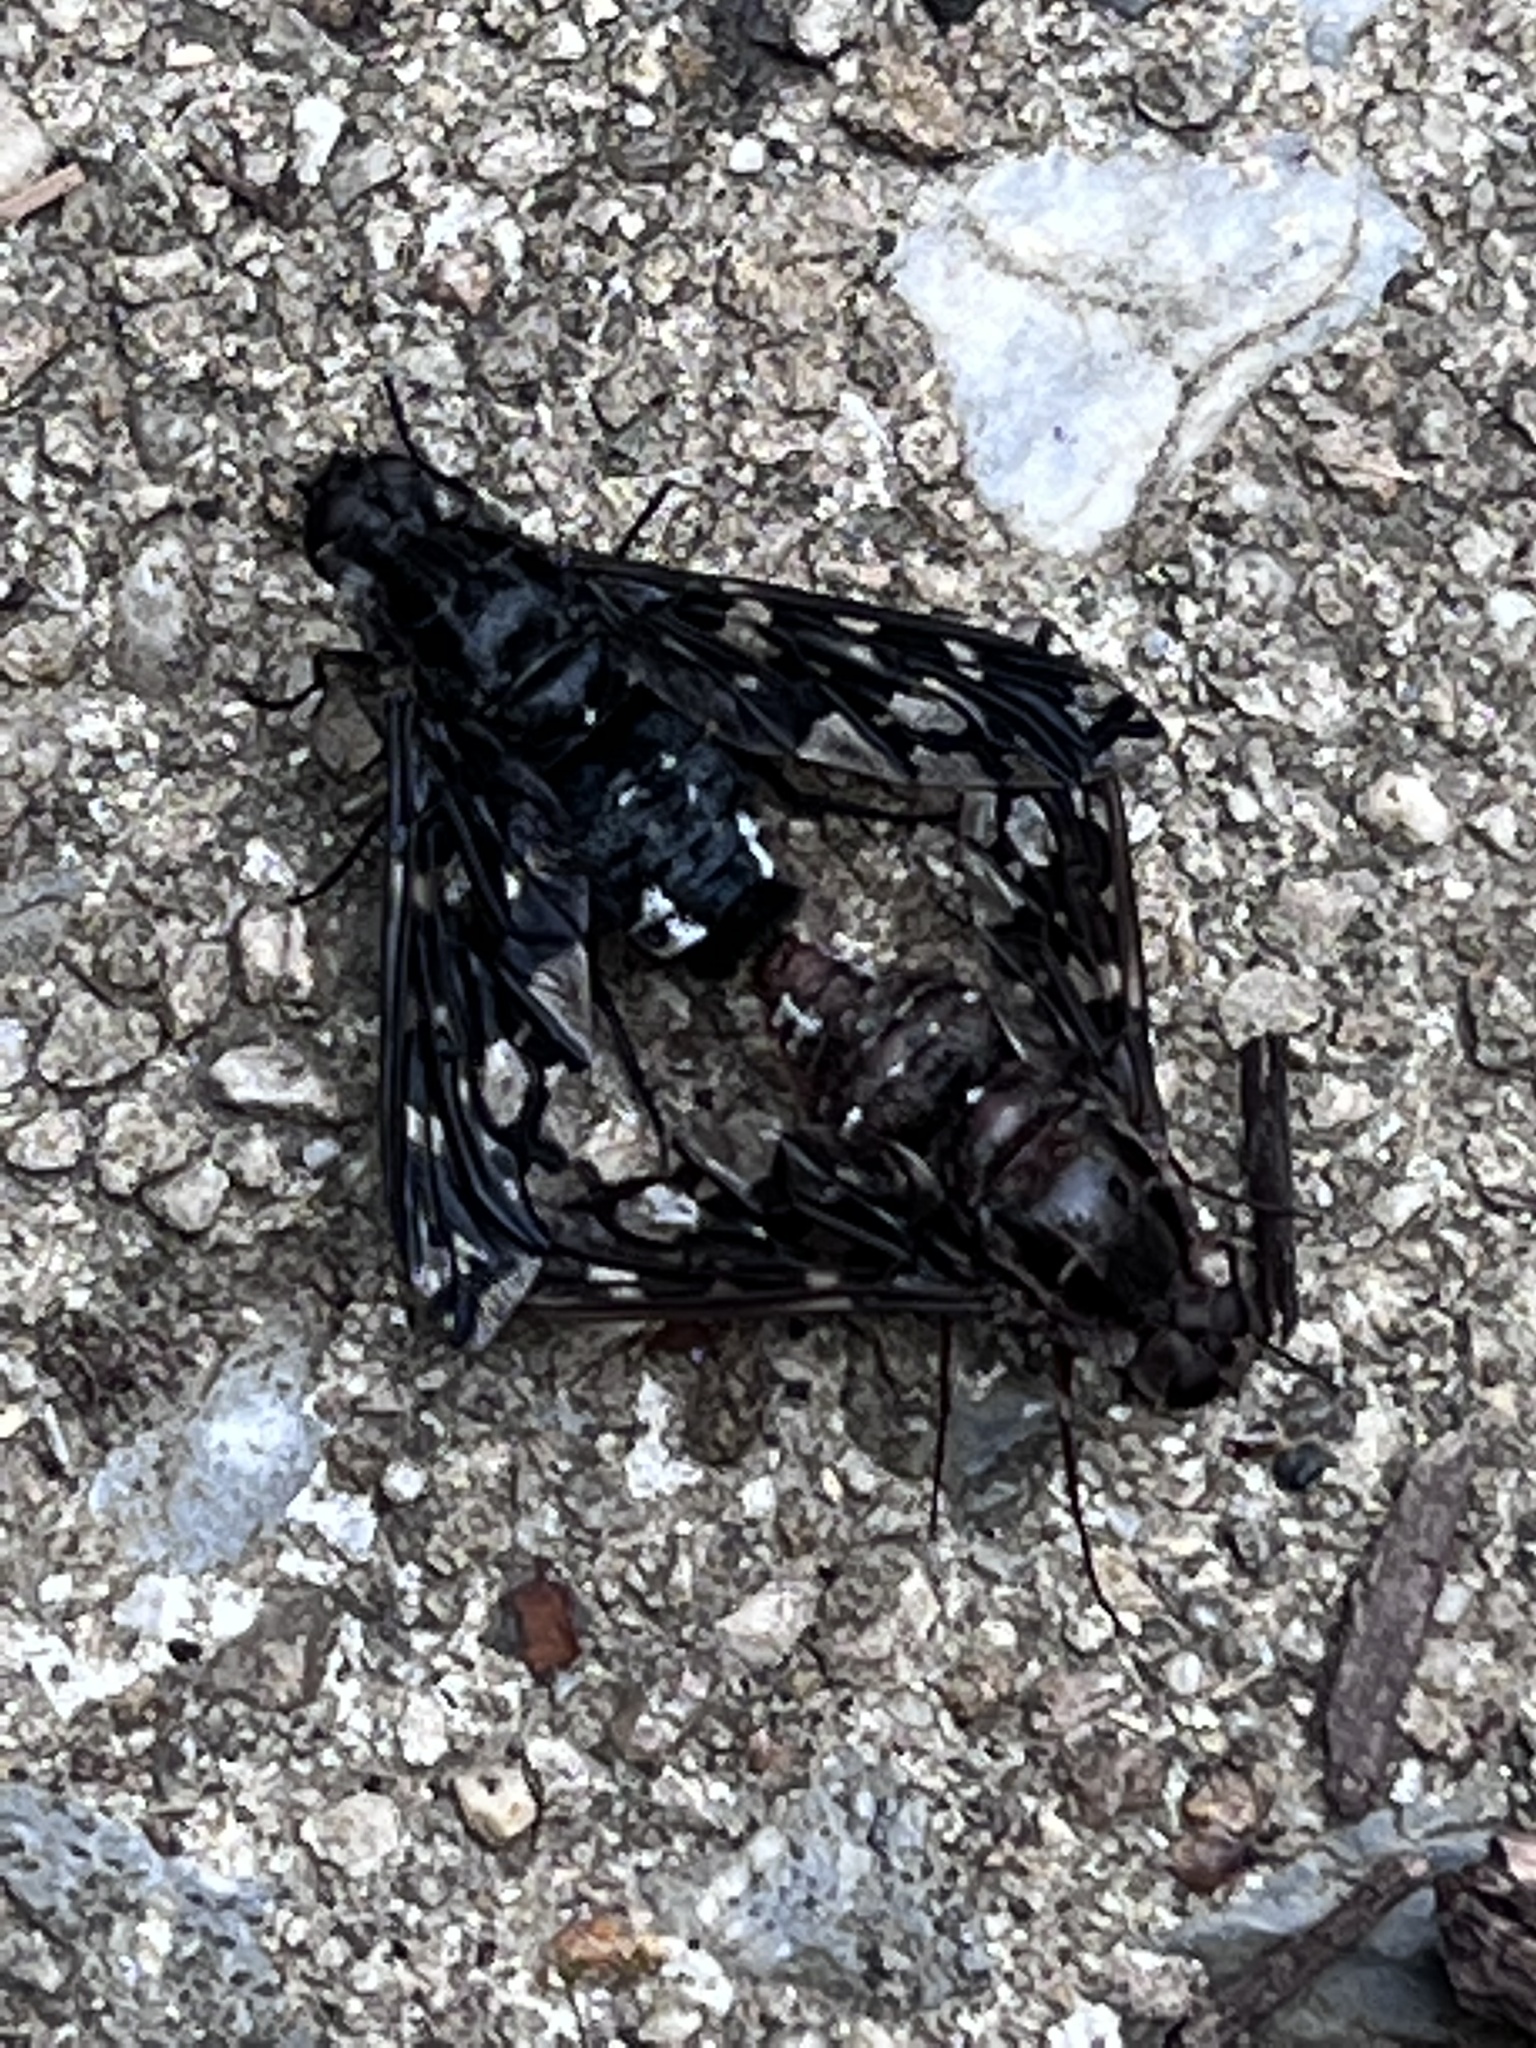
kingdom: Animalia
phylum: Arthropoda
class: Insecta
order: Diptera
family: Bombyliidae
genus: Xenox
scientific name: Xenox tigrinus
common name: Tiger bee fly
